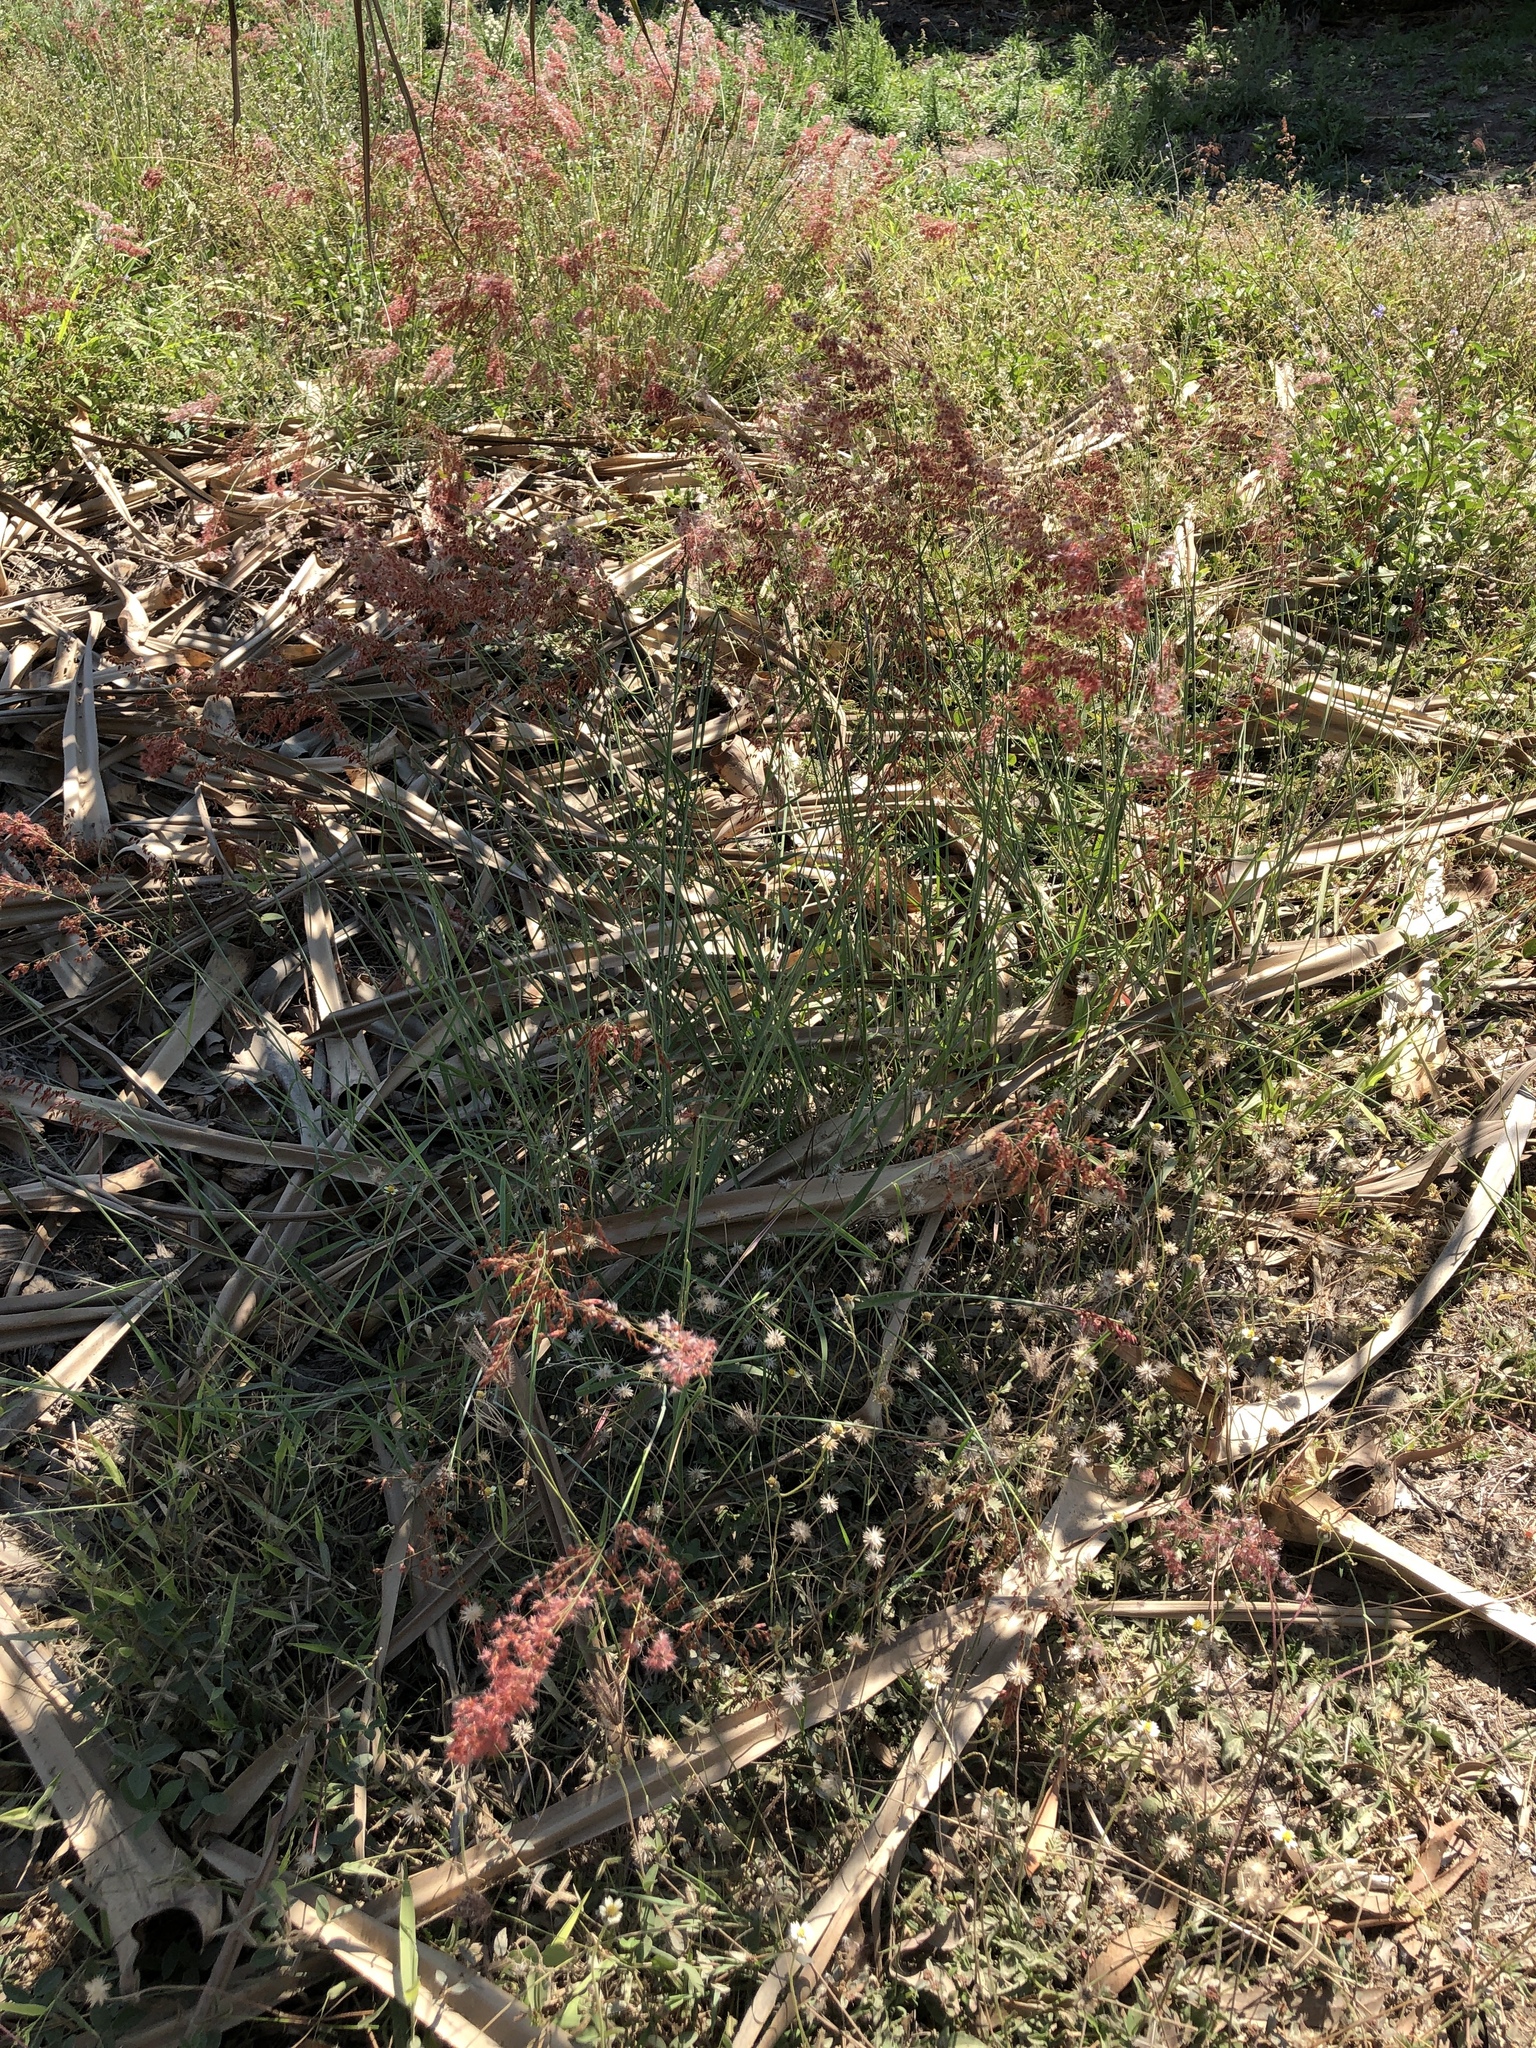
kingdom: Plantae
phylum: Tracheophyta
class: Liliopsida
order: Poales
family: Poaceae
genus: Melinis
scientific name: Melinis repens
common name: Rose natal grass
